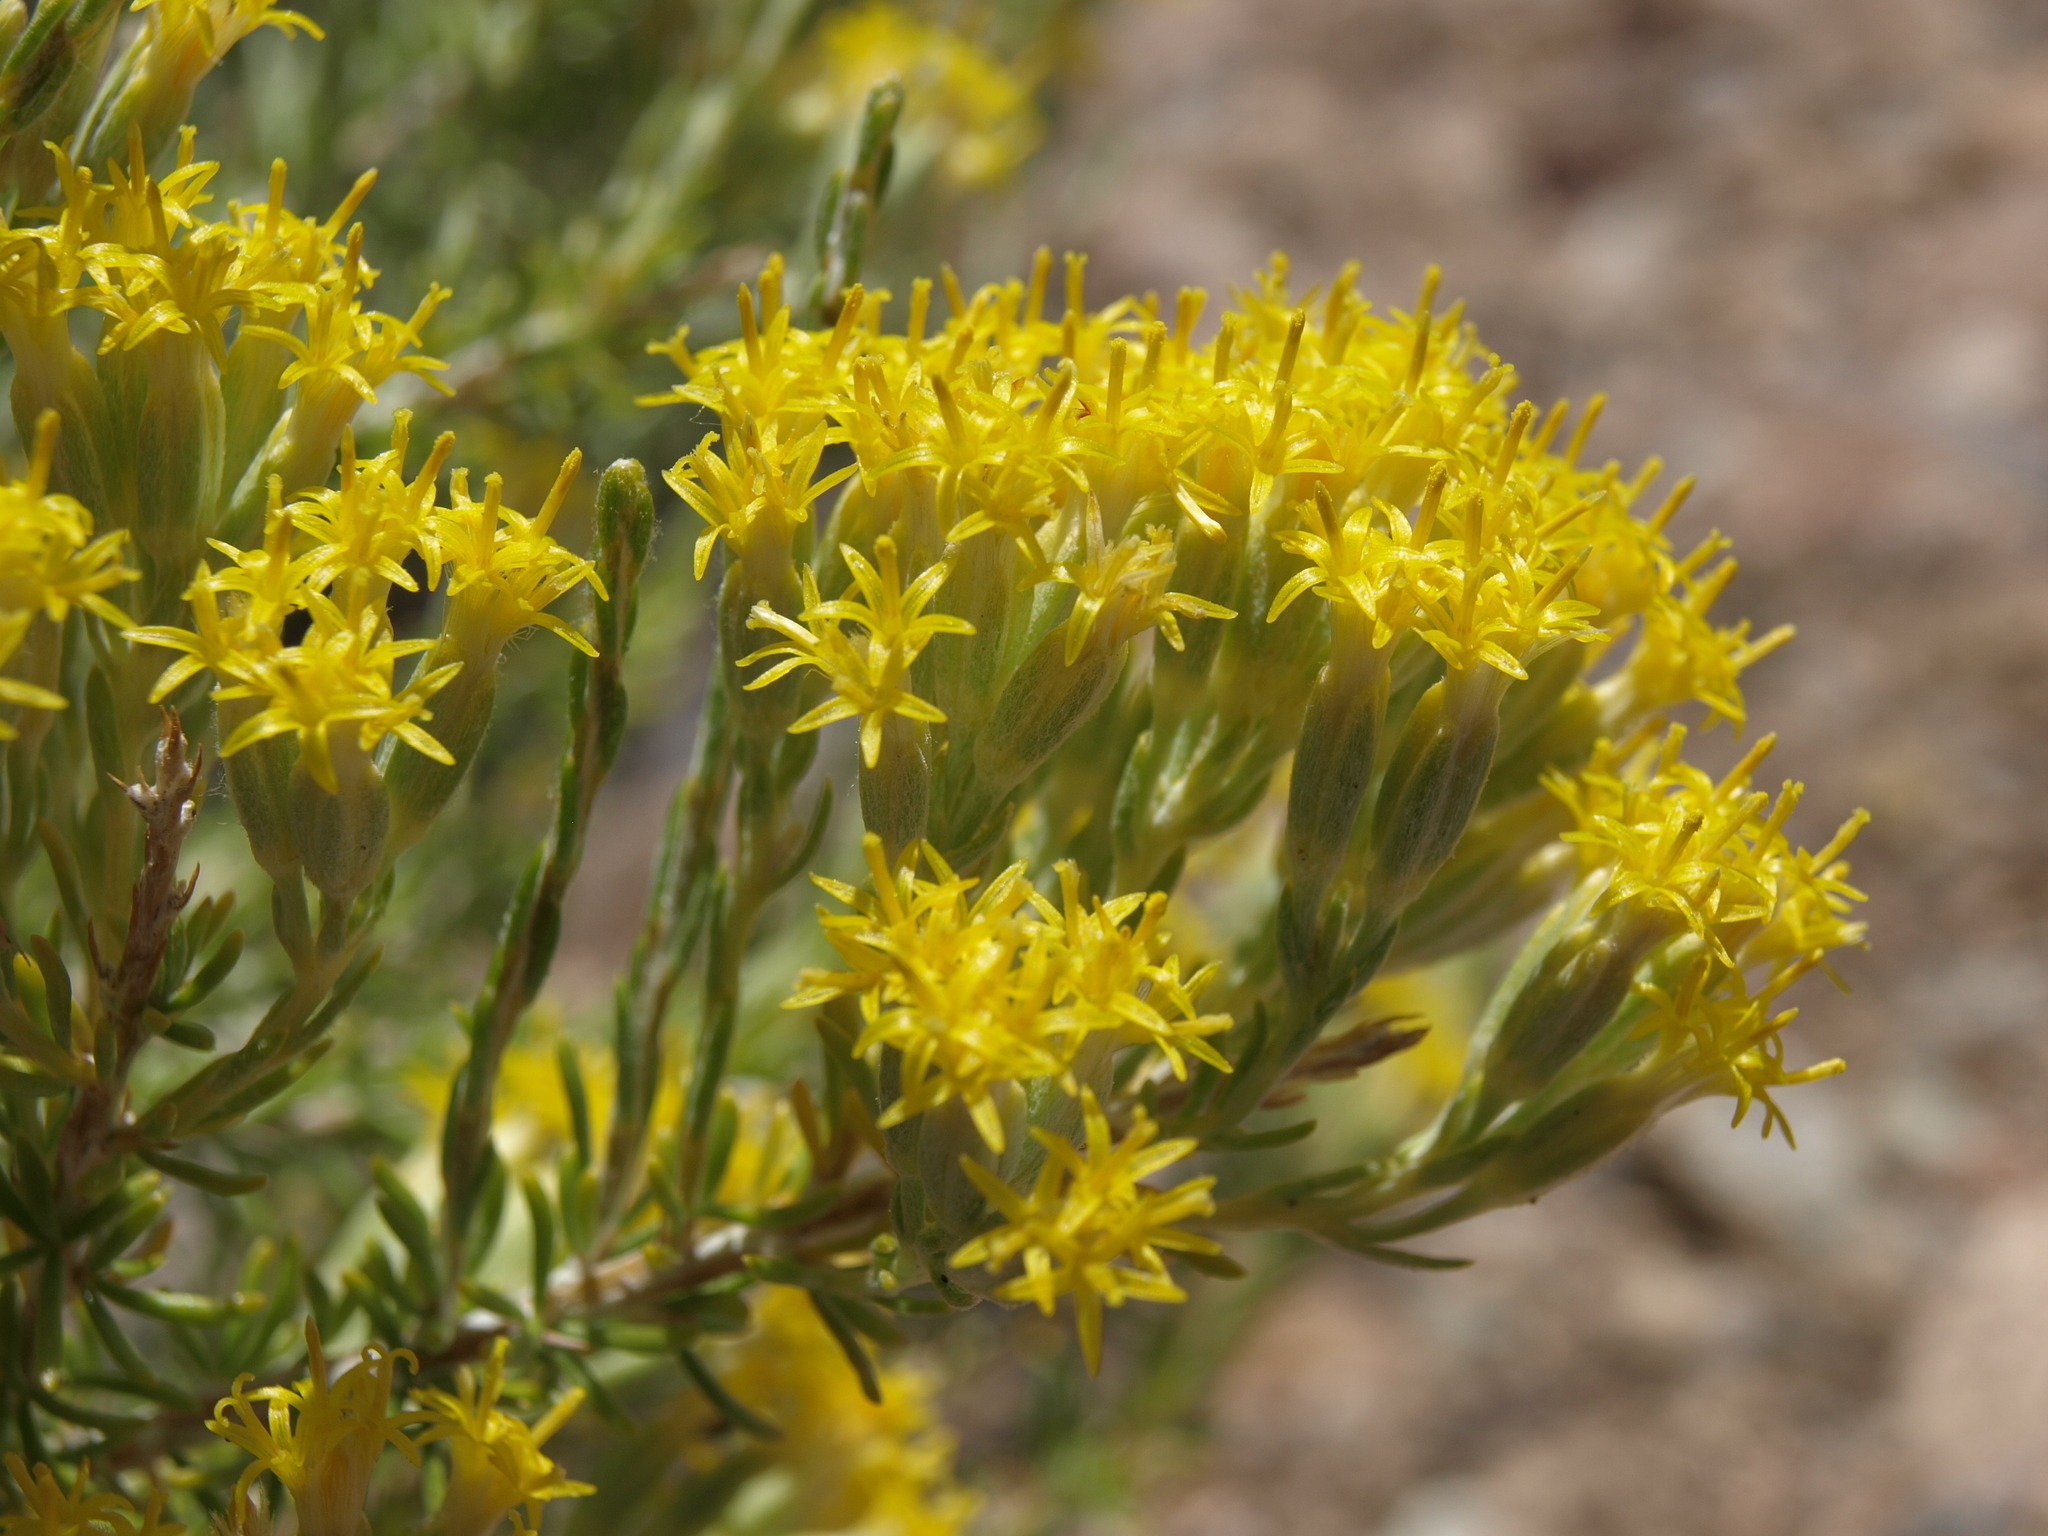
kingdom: Plantae
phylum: Tracheophyta
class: Magnoliopsida
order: Asterales
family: Asteraceae
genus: Tetradymia
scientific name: Tetradymia glabrata
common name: Smooth tetradymia
